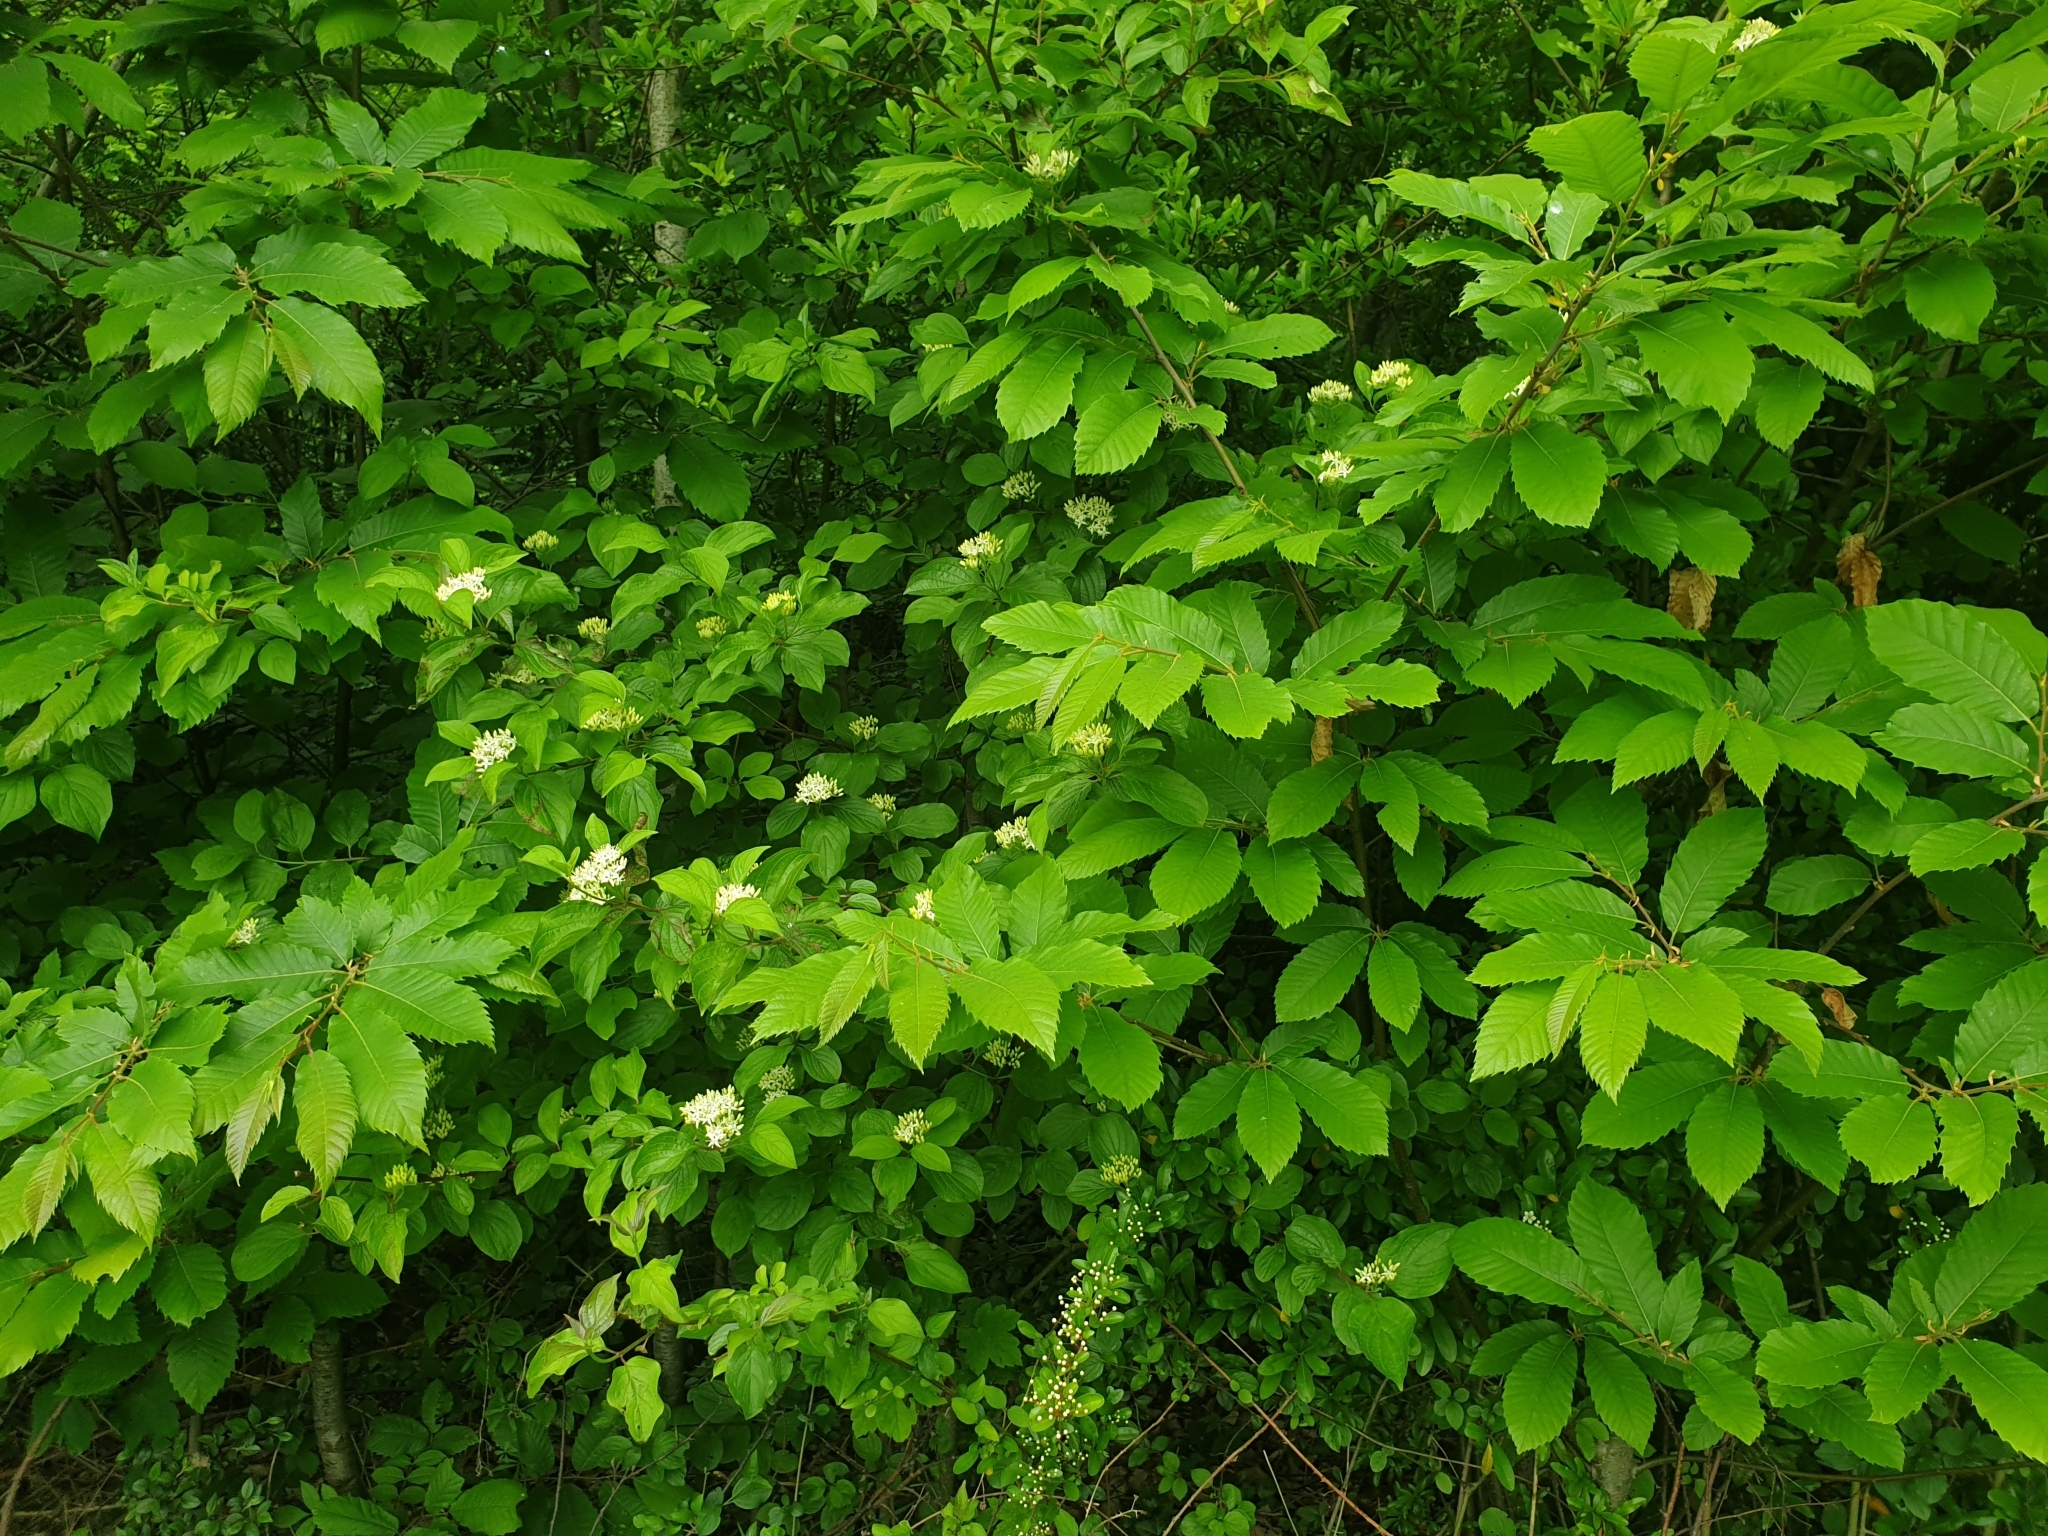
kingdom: Plantae
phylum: Tracheophyta
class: Magnoliopsida
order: Cornales
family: Cornaceae
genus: Cornus
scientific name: Cornus sanguinea
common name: Dogwood
